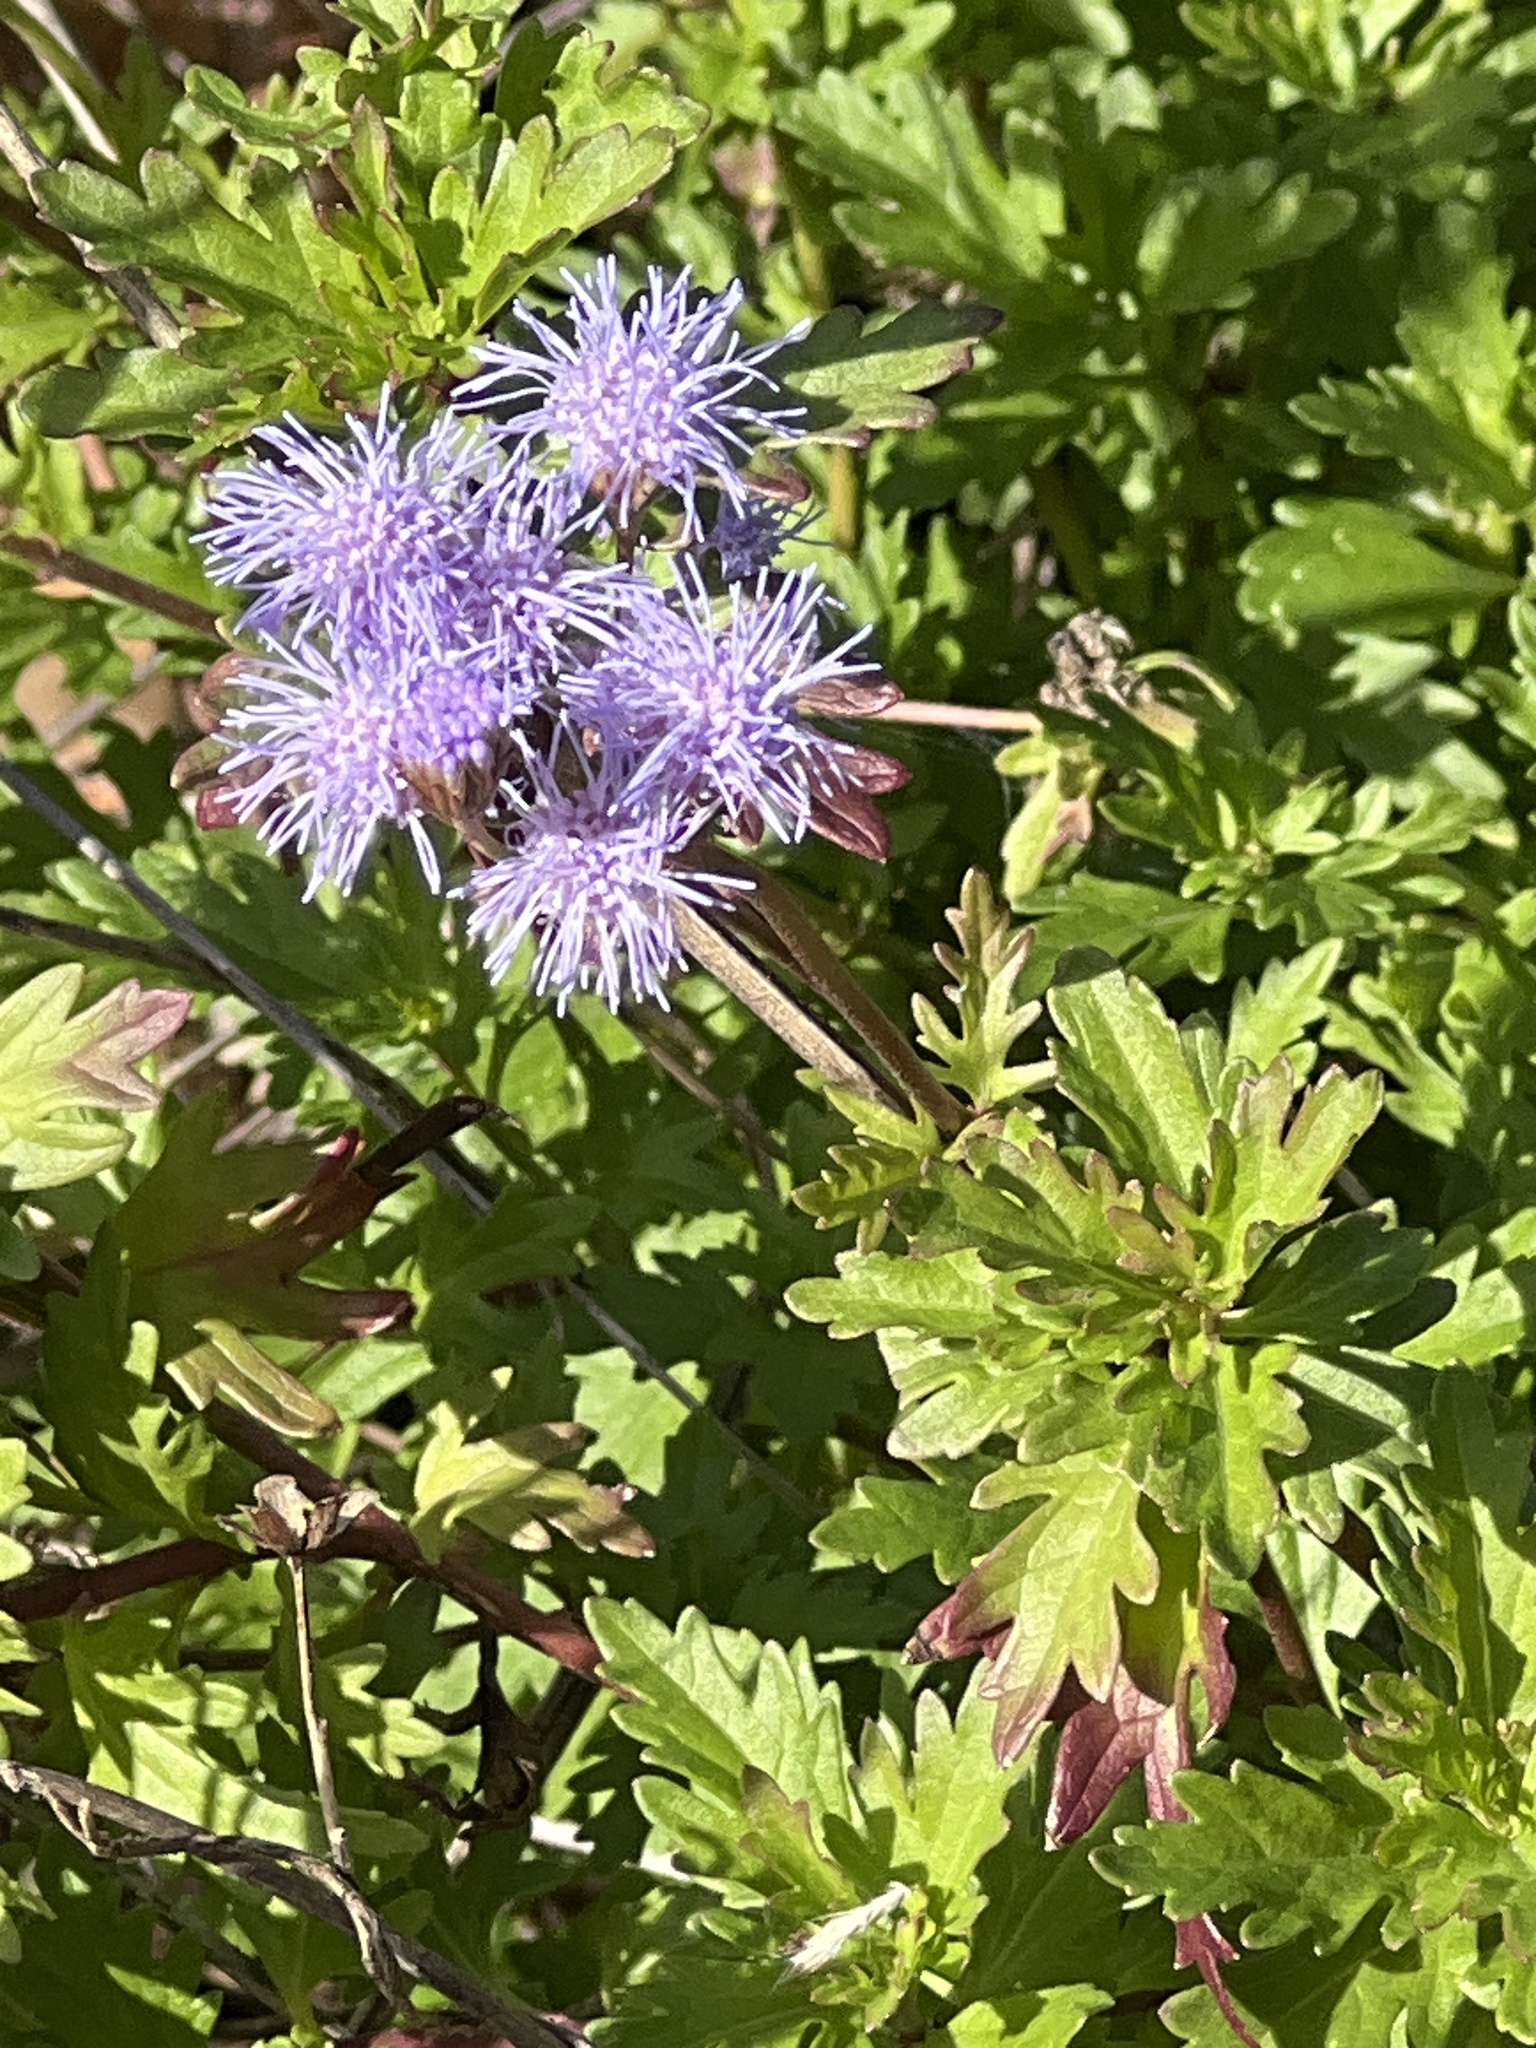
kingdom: Plantae
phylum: Tracheophyta
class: Magnoliopsida
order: Asterales
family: Asteraceae
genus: Conoclinium
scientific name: Conoclinium dissectum
